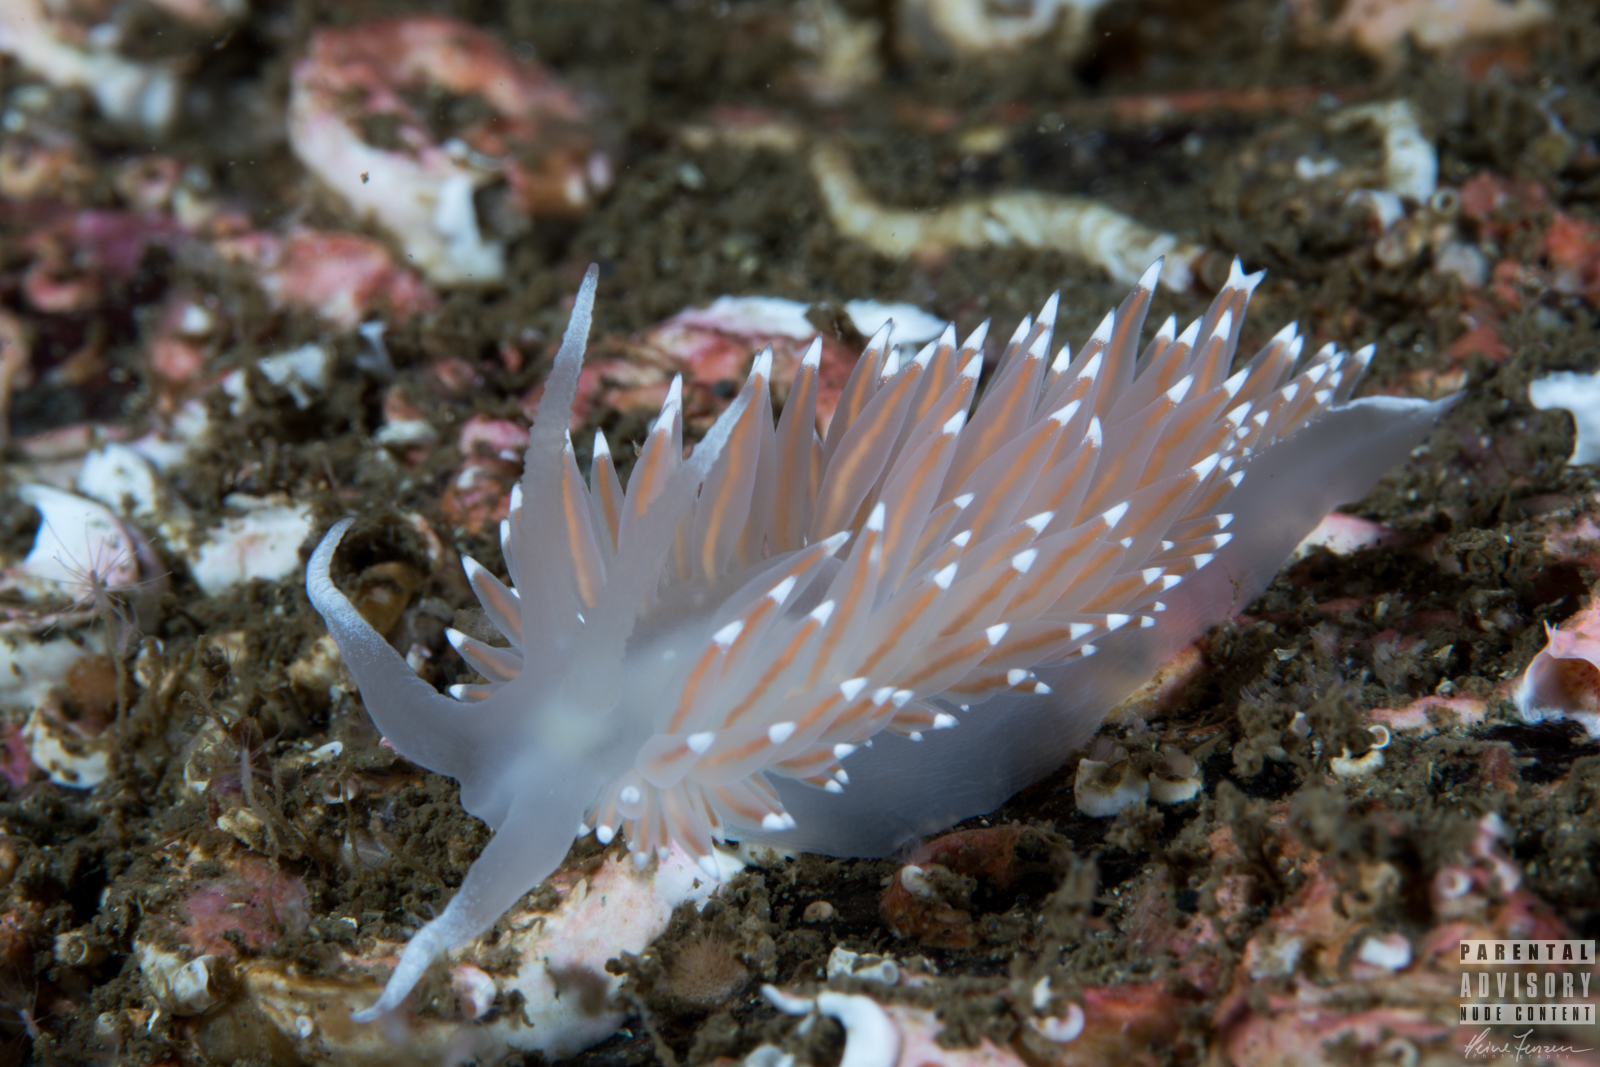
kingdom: Animalia
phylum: Mollusca
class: Gastropoda
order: Nudibranchia
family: Coryphellidae
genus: Coryphella
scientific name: Coryphella nobilis
